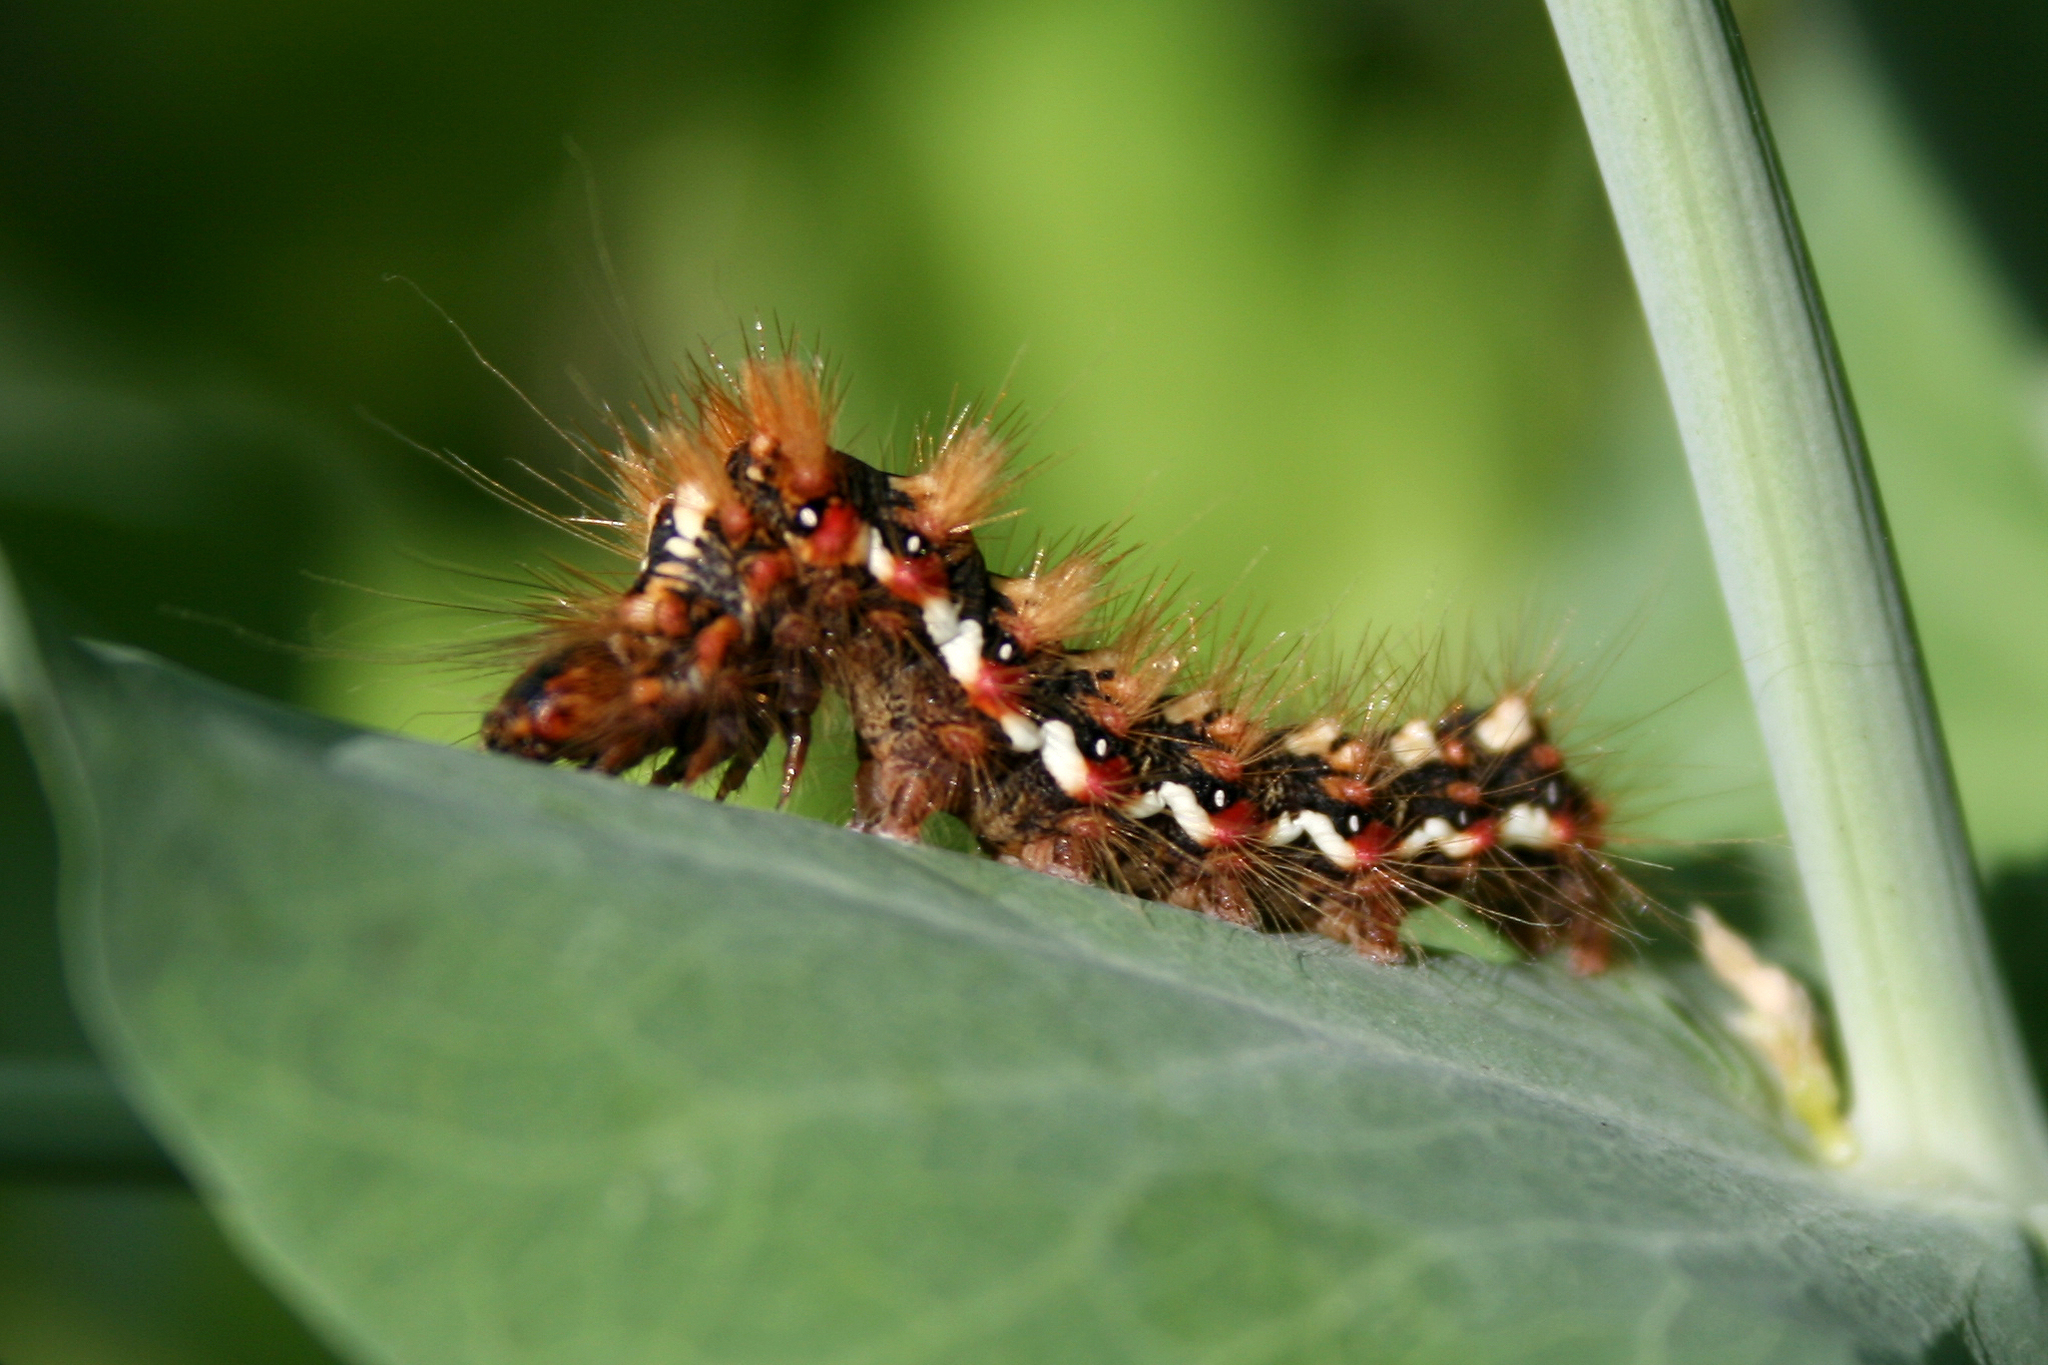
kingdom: Animalia
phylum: Arthropoda
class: Insecta
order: Lepidoptera
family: Noctuidae
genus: Acronicta
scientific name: Acronicta rumicis
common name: Knot grass
